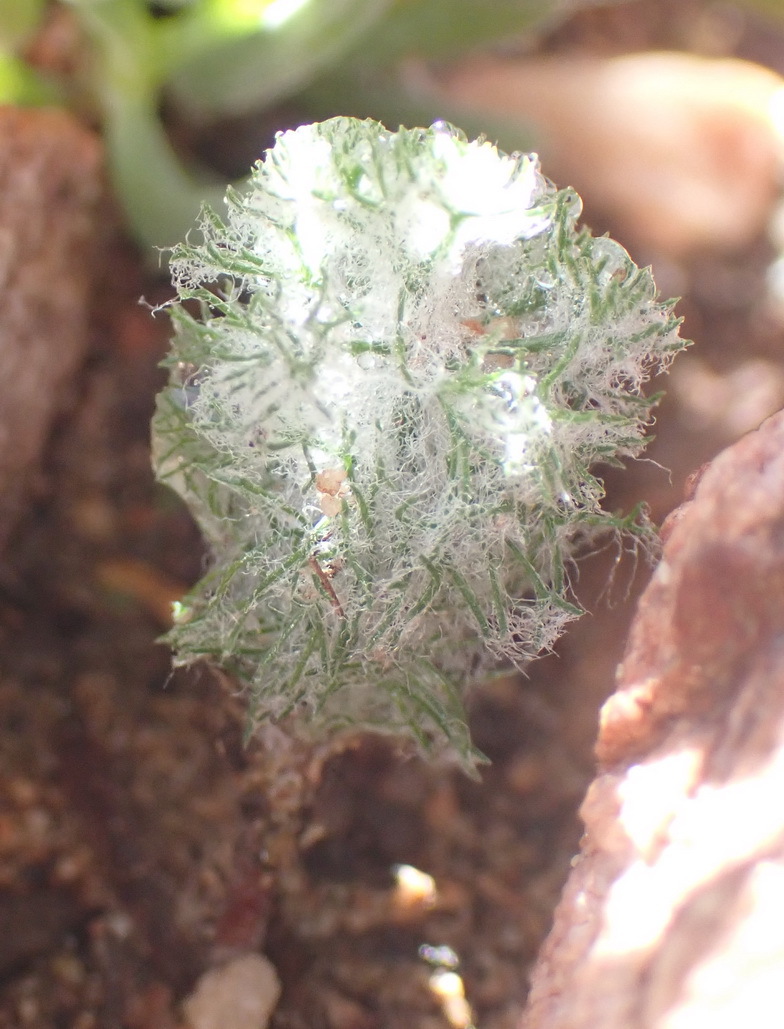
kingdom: Plantae
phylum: Tracheophyta
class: Liliopsida
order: Asparagales
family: Asparagaceae
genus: Eriospermum
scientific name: Eriospermum paradoxum
